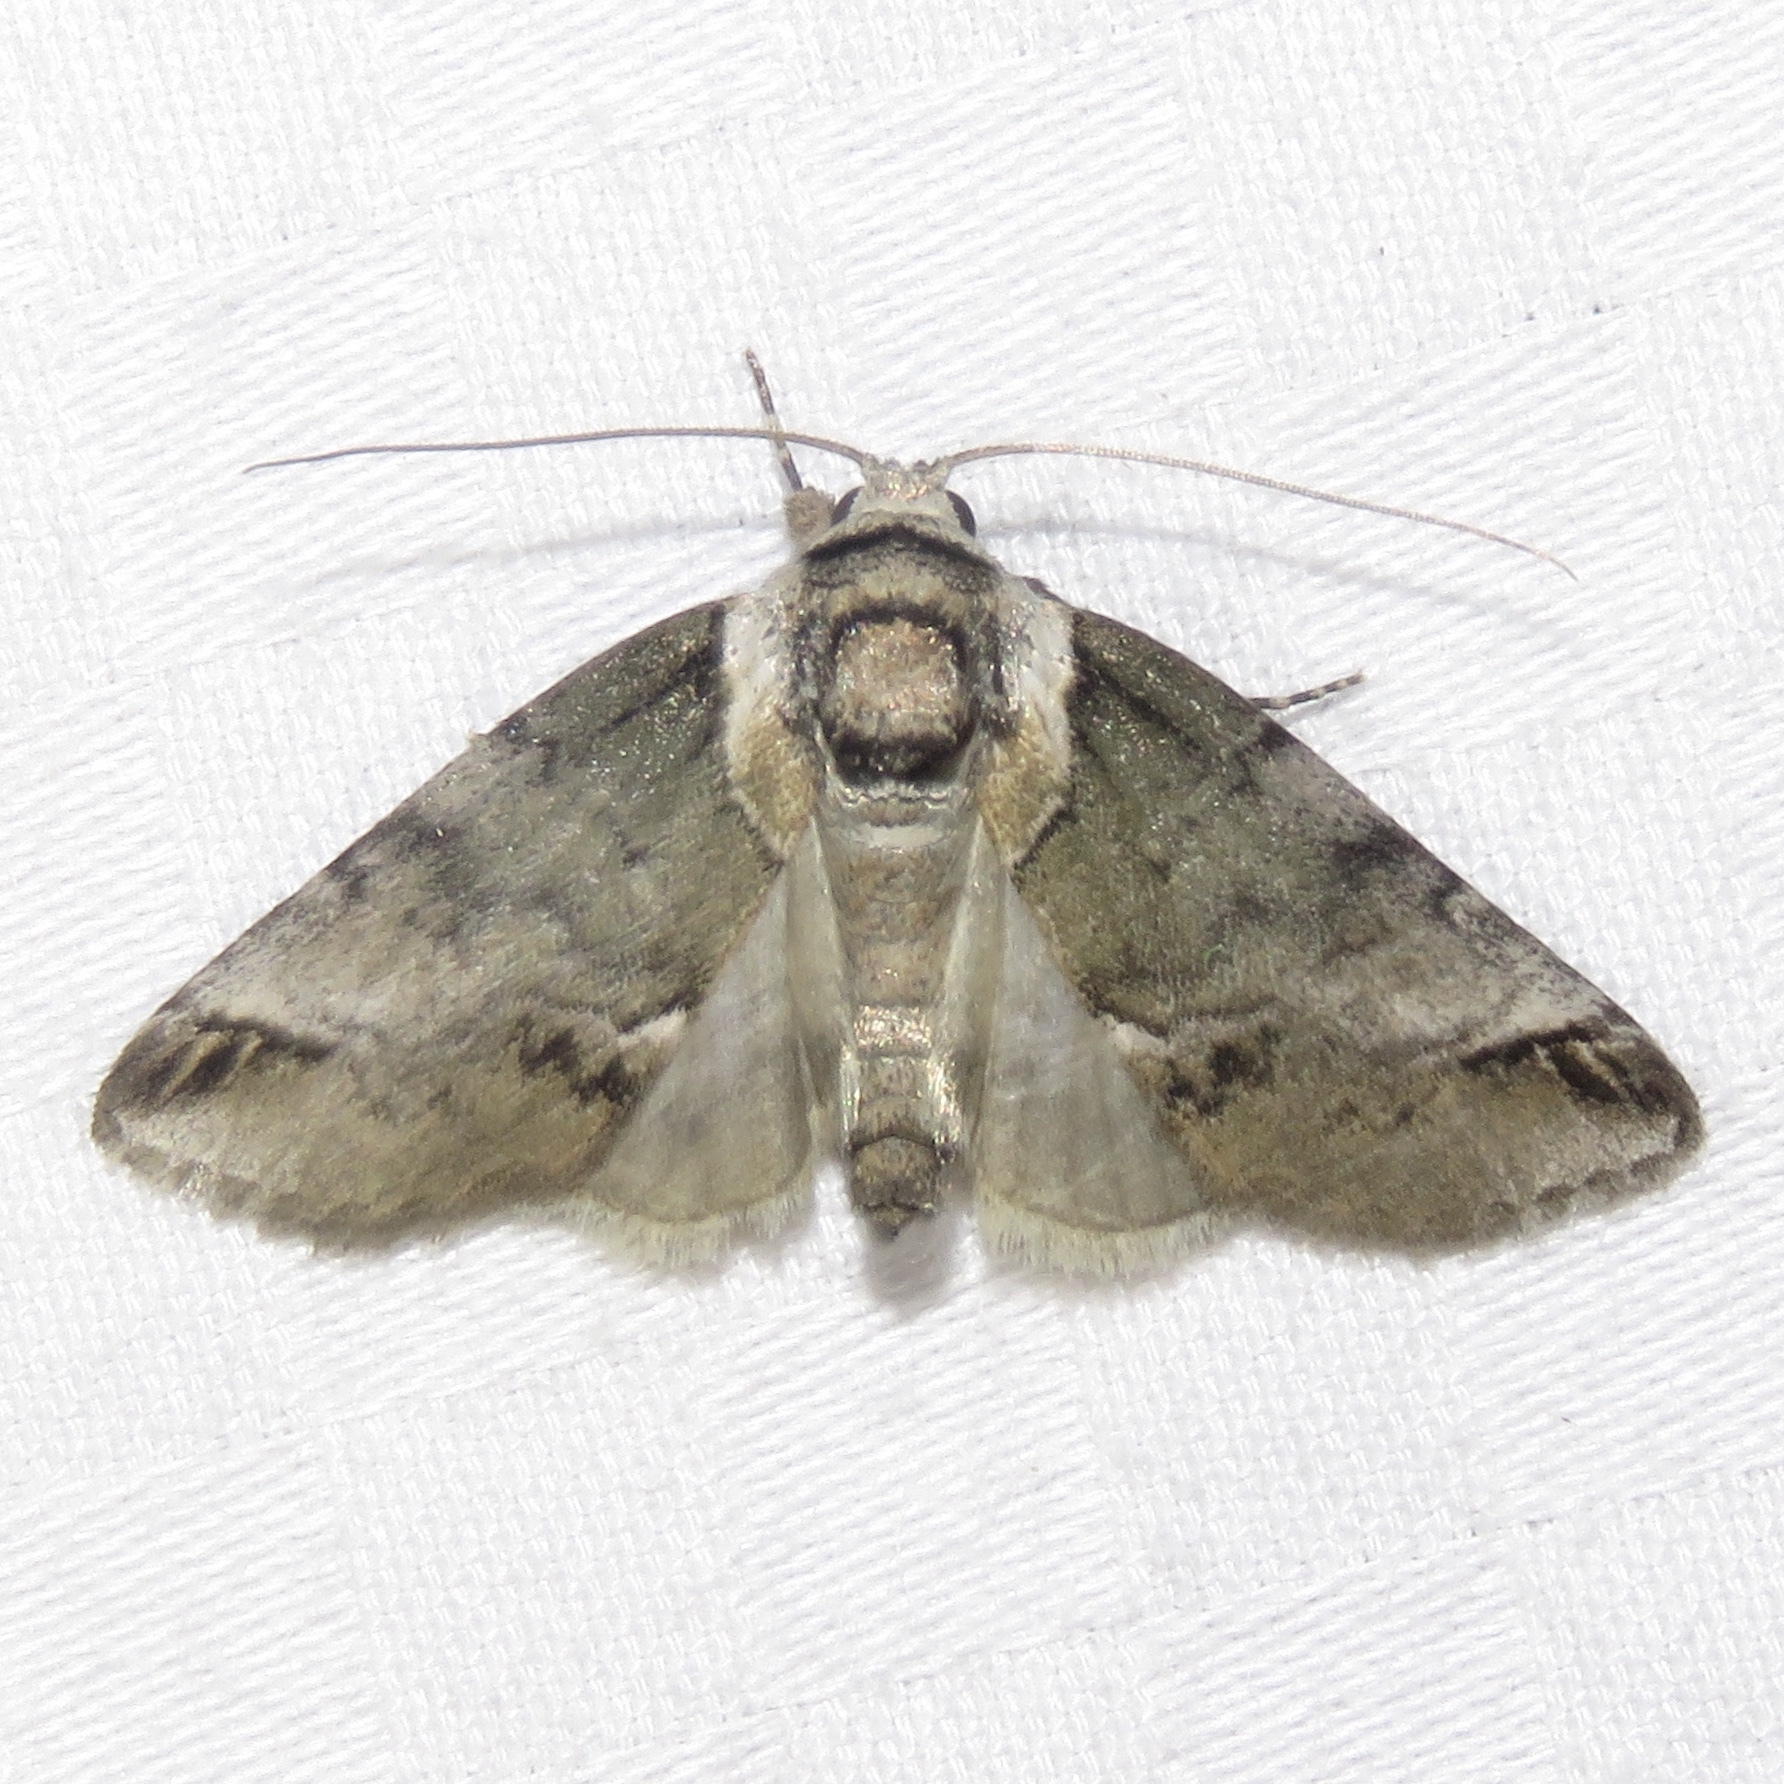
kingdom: Animalia
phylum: Arthropoda
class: Insecta
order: Lepidoptera
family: Nolidae
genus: Baileya
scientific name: Baileya australis
